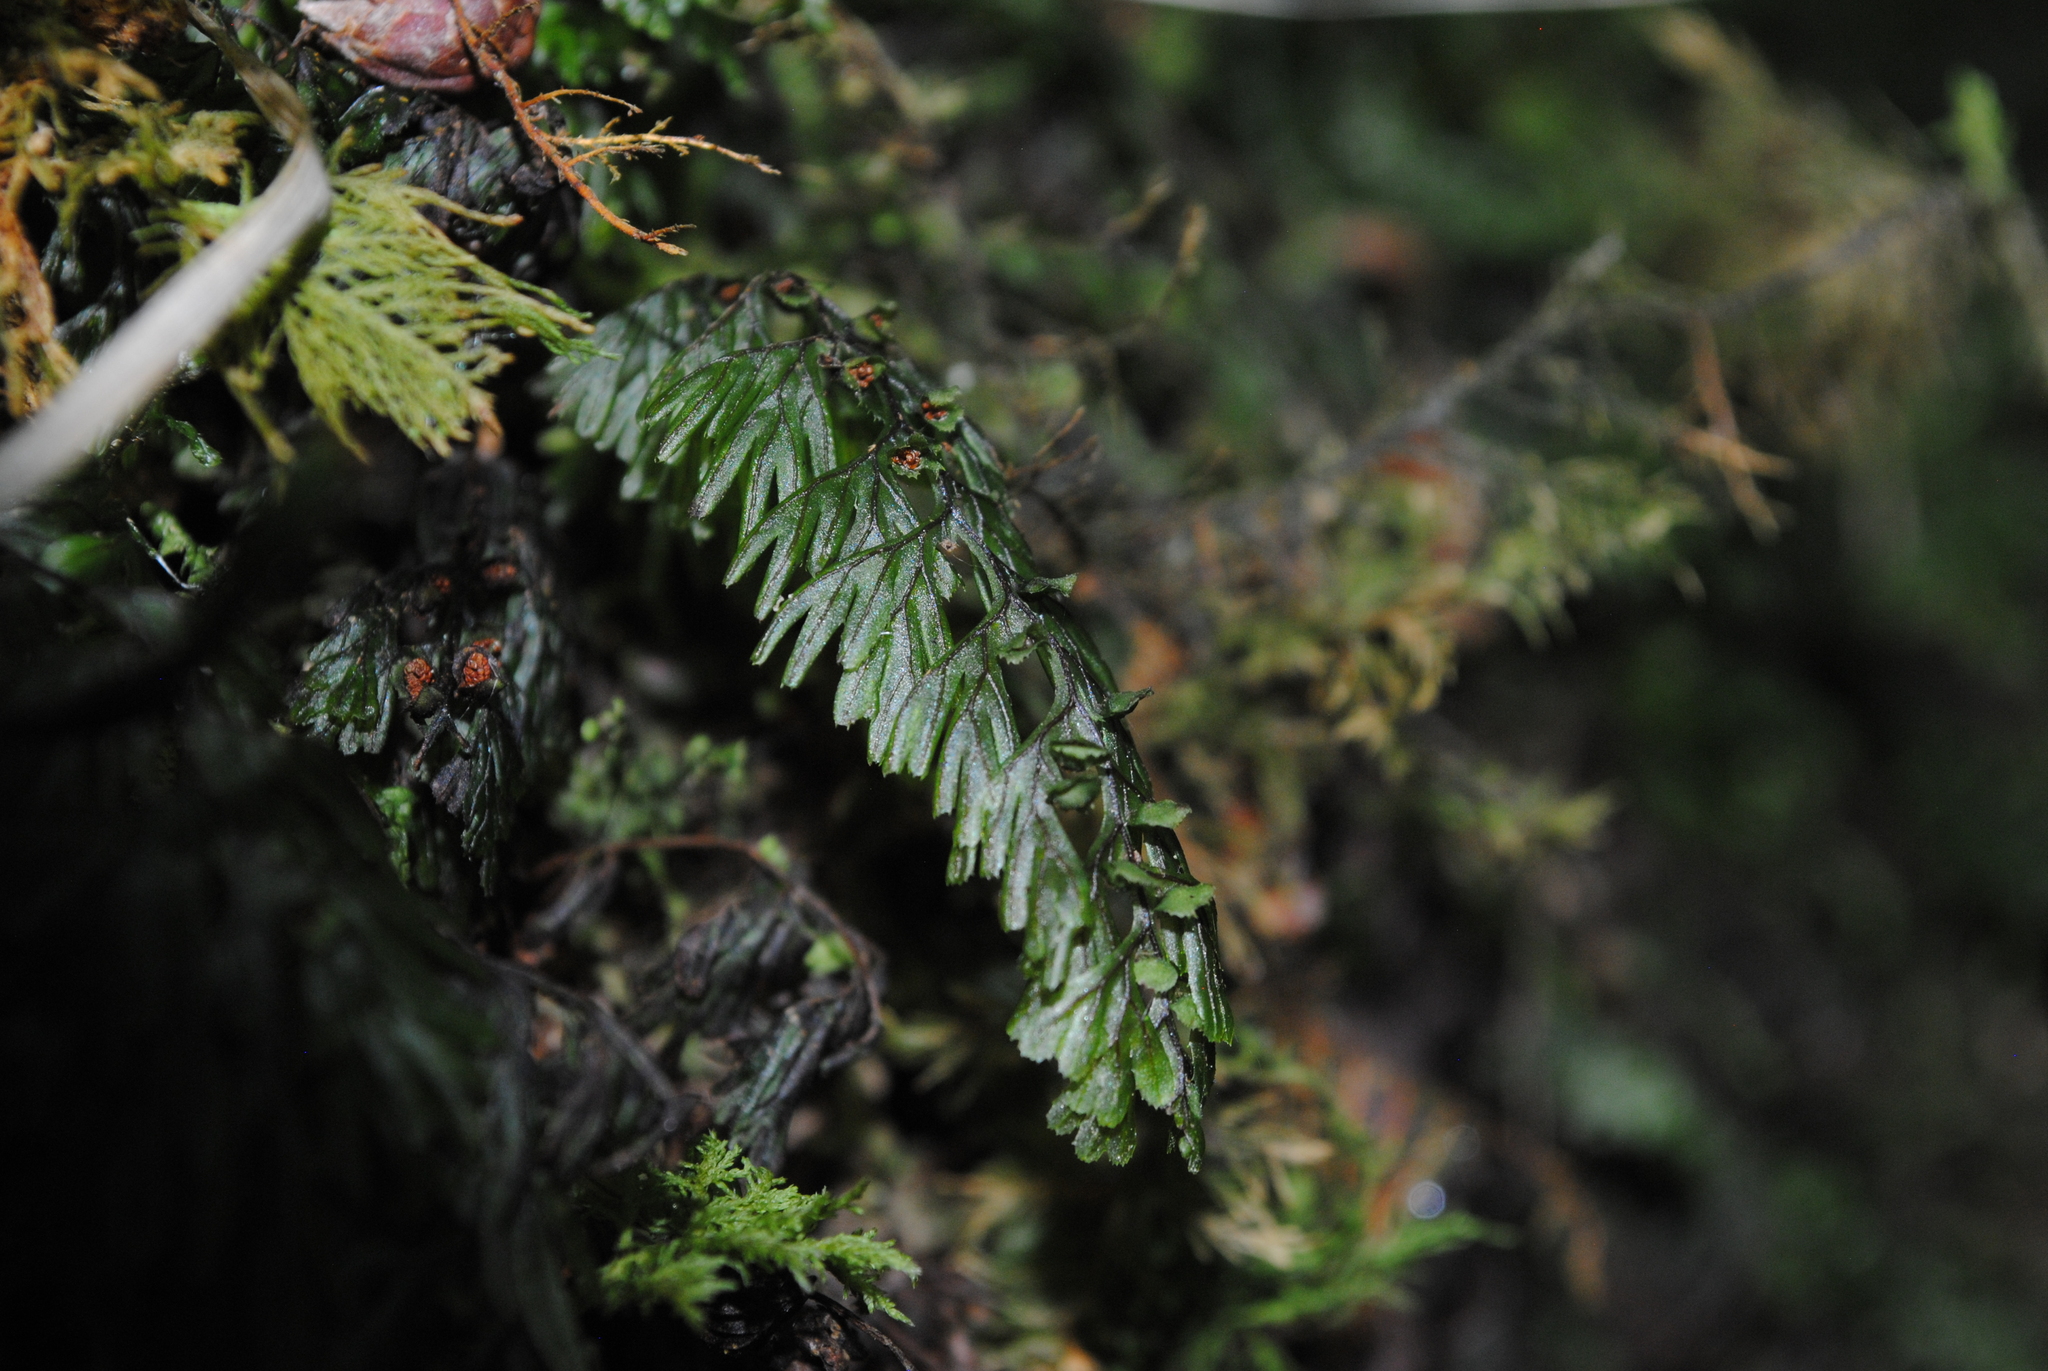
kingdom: Plantae
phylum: Tracheophyta
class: Polypodiopsida
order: Hymenophyllales
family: Hymenophyllaceae
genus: Hymenophyllum
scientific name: Hymenophyllum tunbrigense
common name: Tunbridge filmy fern
